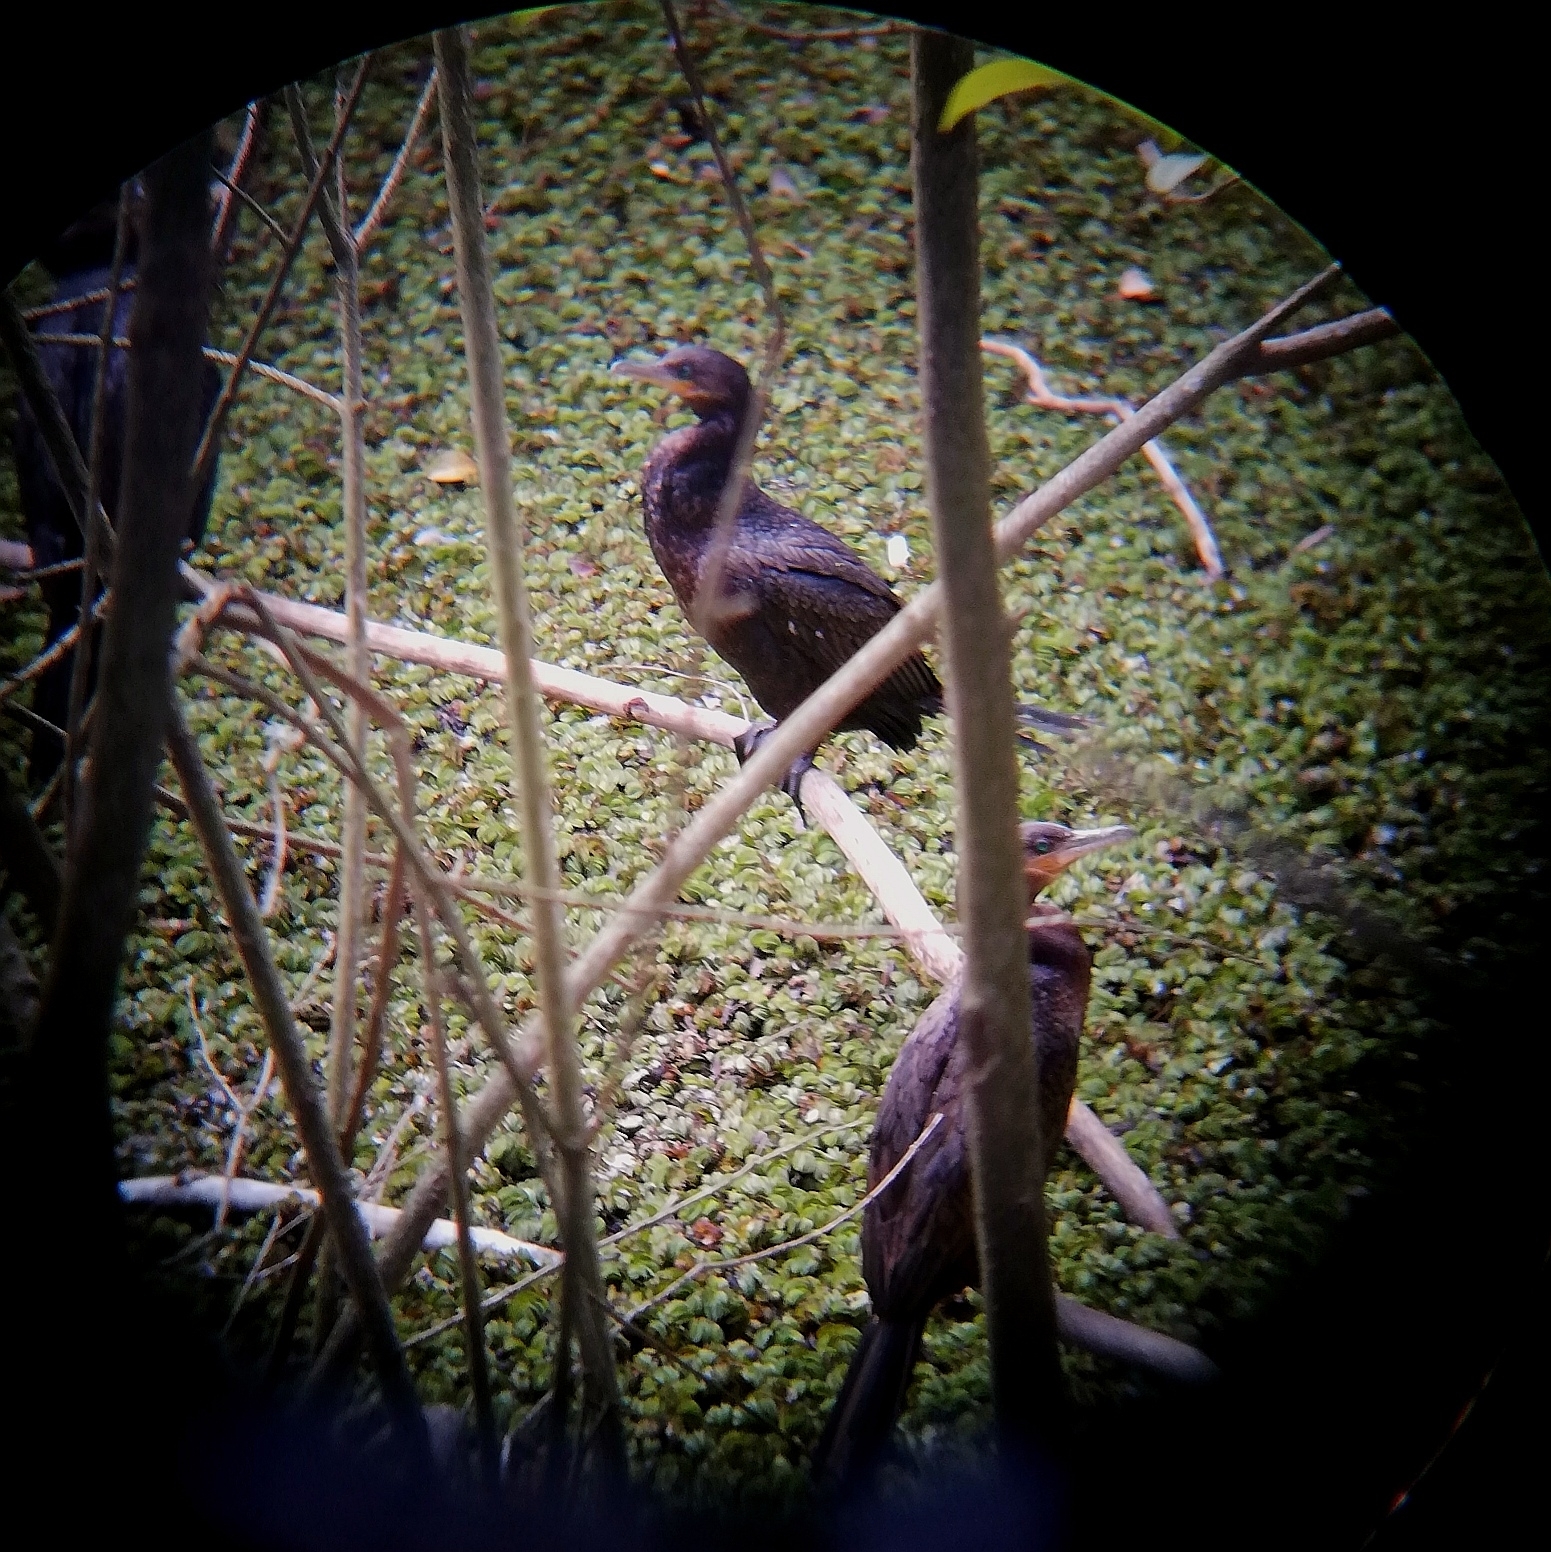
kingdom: Animalia
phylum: Chordata
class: Aves
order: Suliformes
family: Phalacrocoracidae
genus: Phalacrocorax
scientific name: Phalacrocorax brasilianus
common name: Neotropic cormorant
